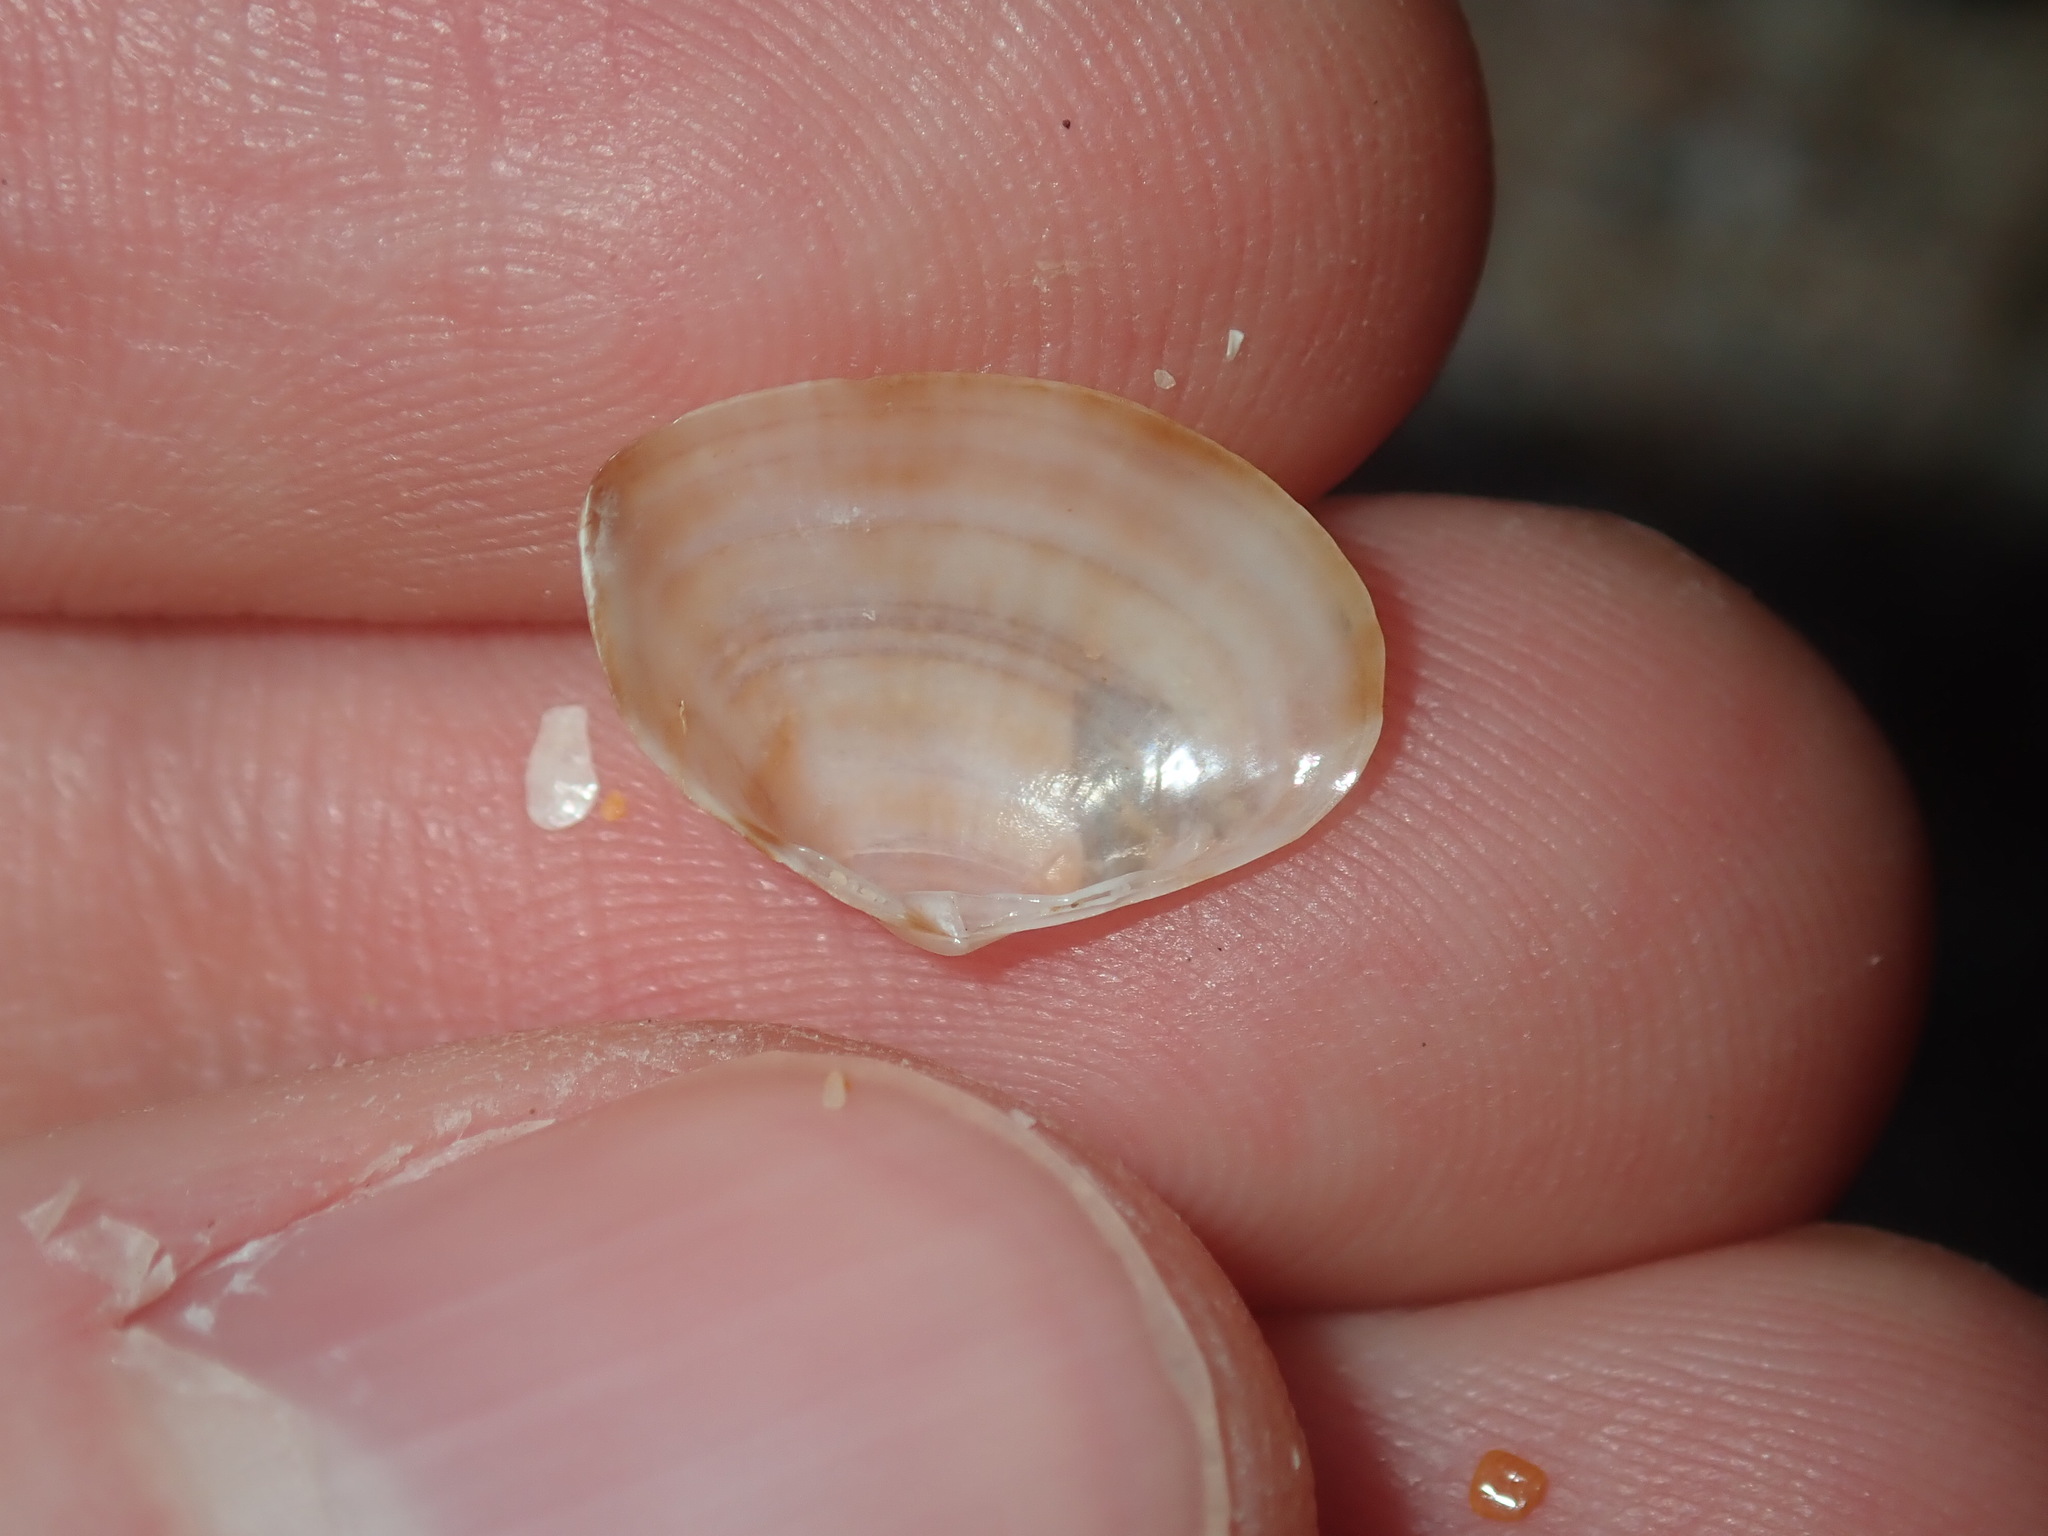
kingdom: Animalia
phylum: Mollusca
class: Bivalvia
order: Venerida
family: Mactridae
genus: Mactra
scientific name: Mactra eximia
